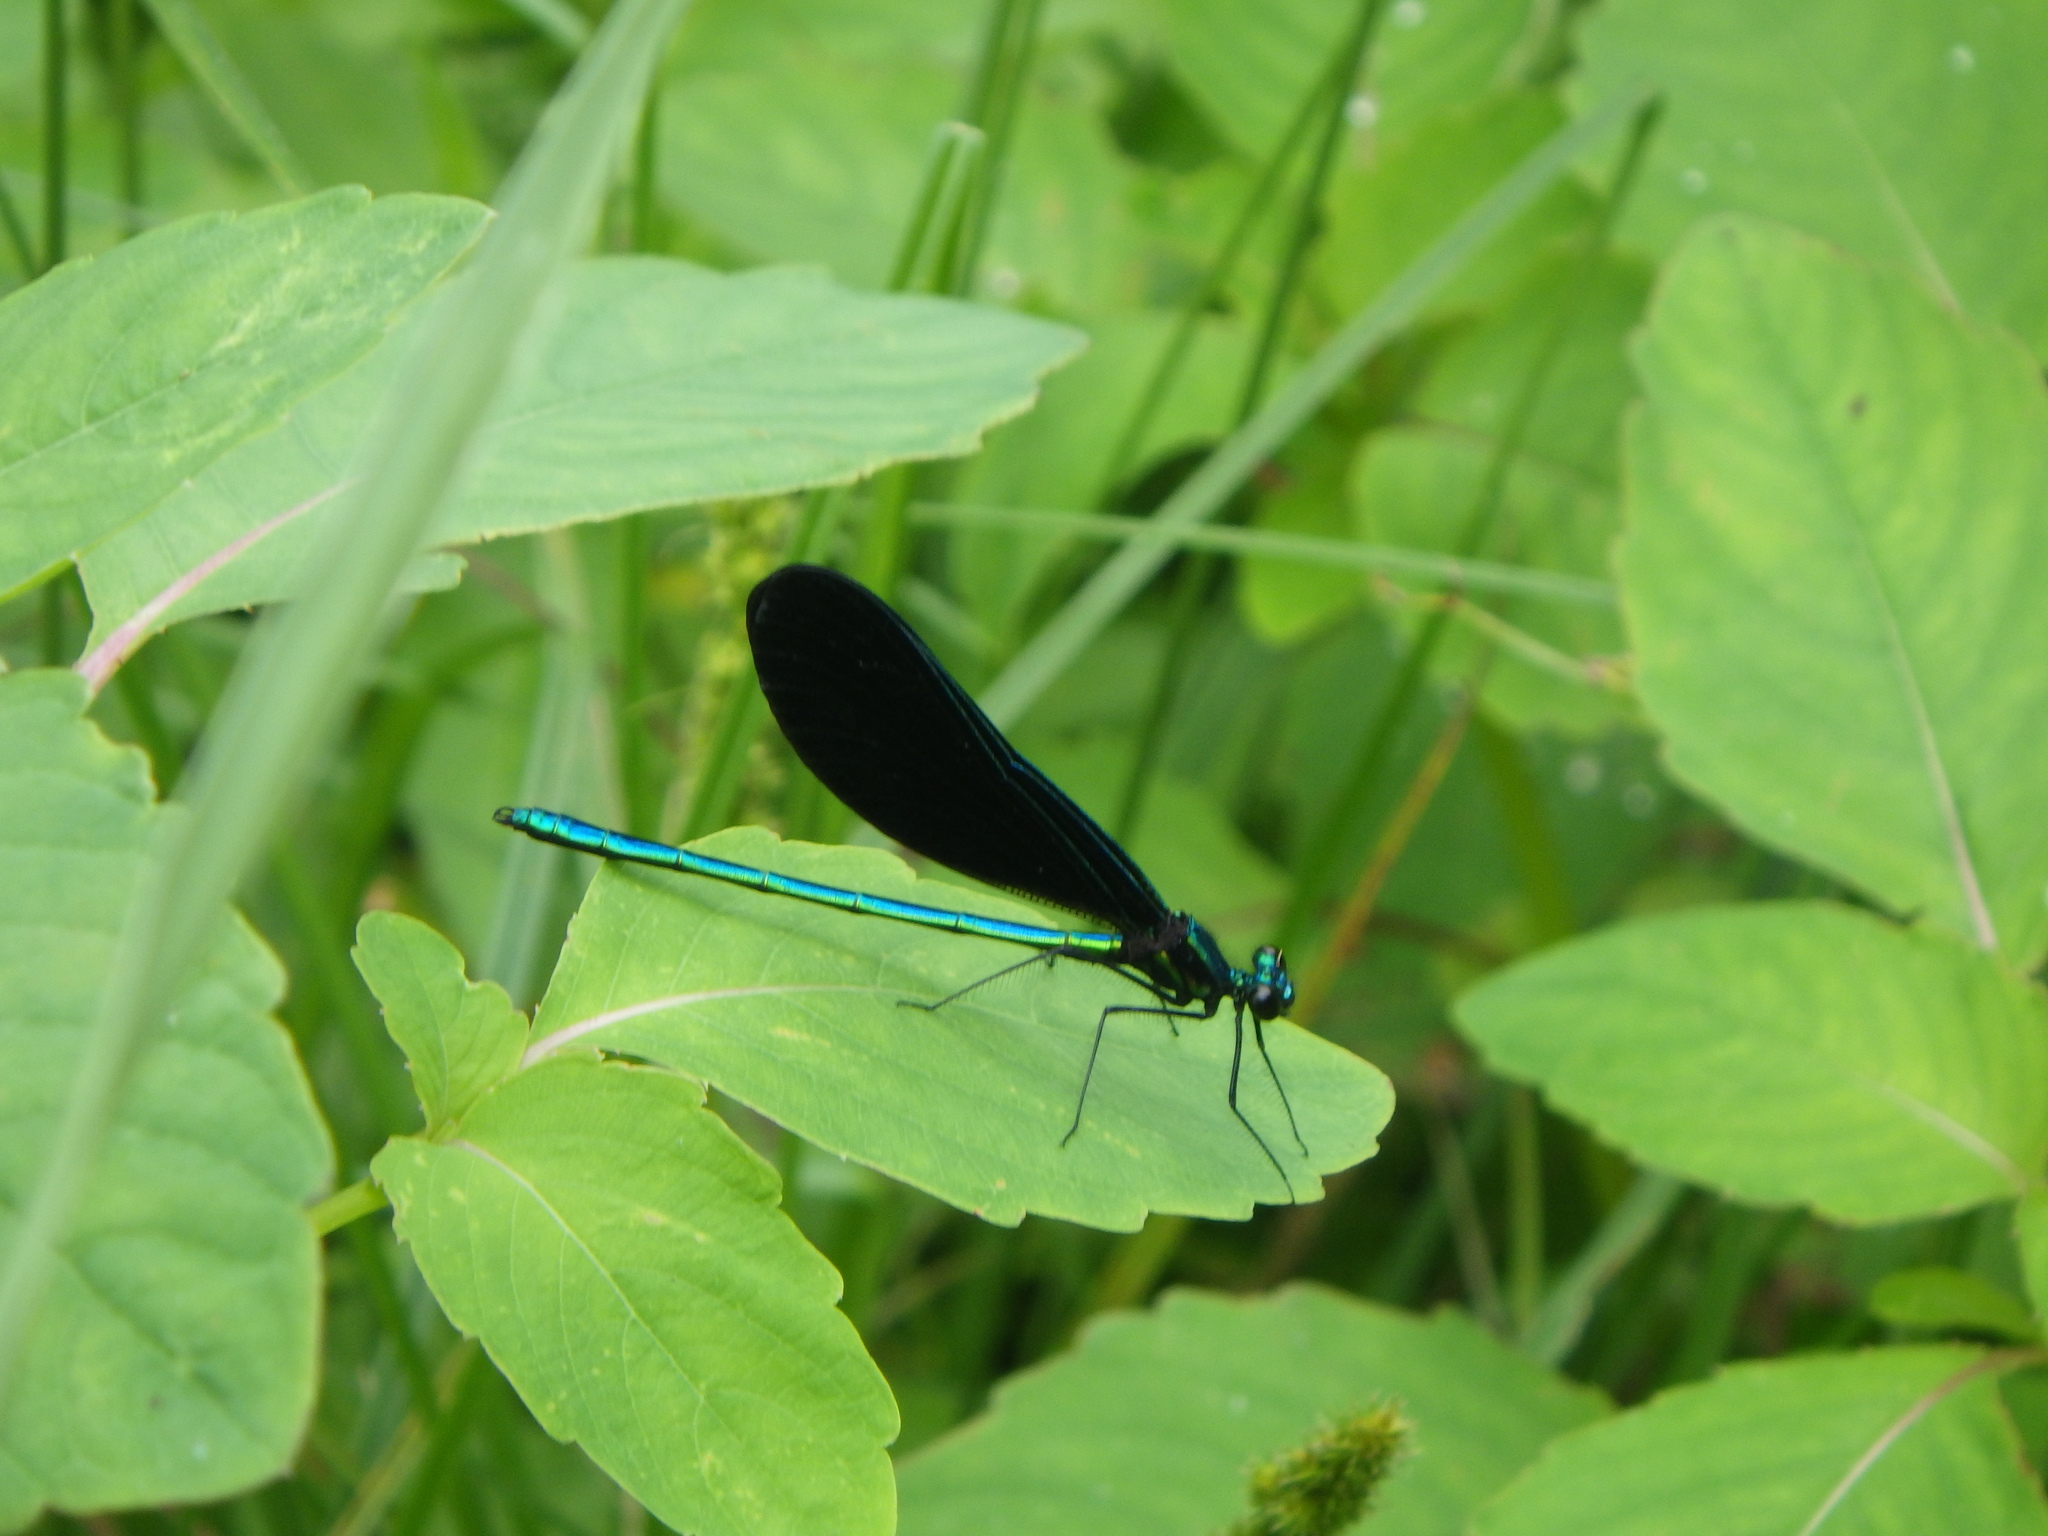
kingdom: Animalia
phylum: Arthropoda
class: Insecta
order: Odonata
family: Calopterygidae
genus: Calopteryx
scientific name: Calopteryx maculata
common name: Ebony jewelwing
